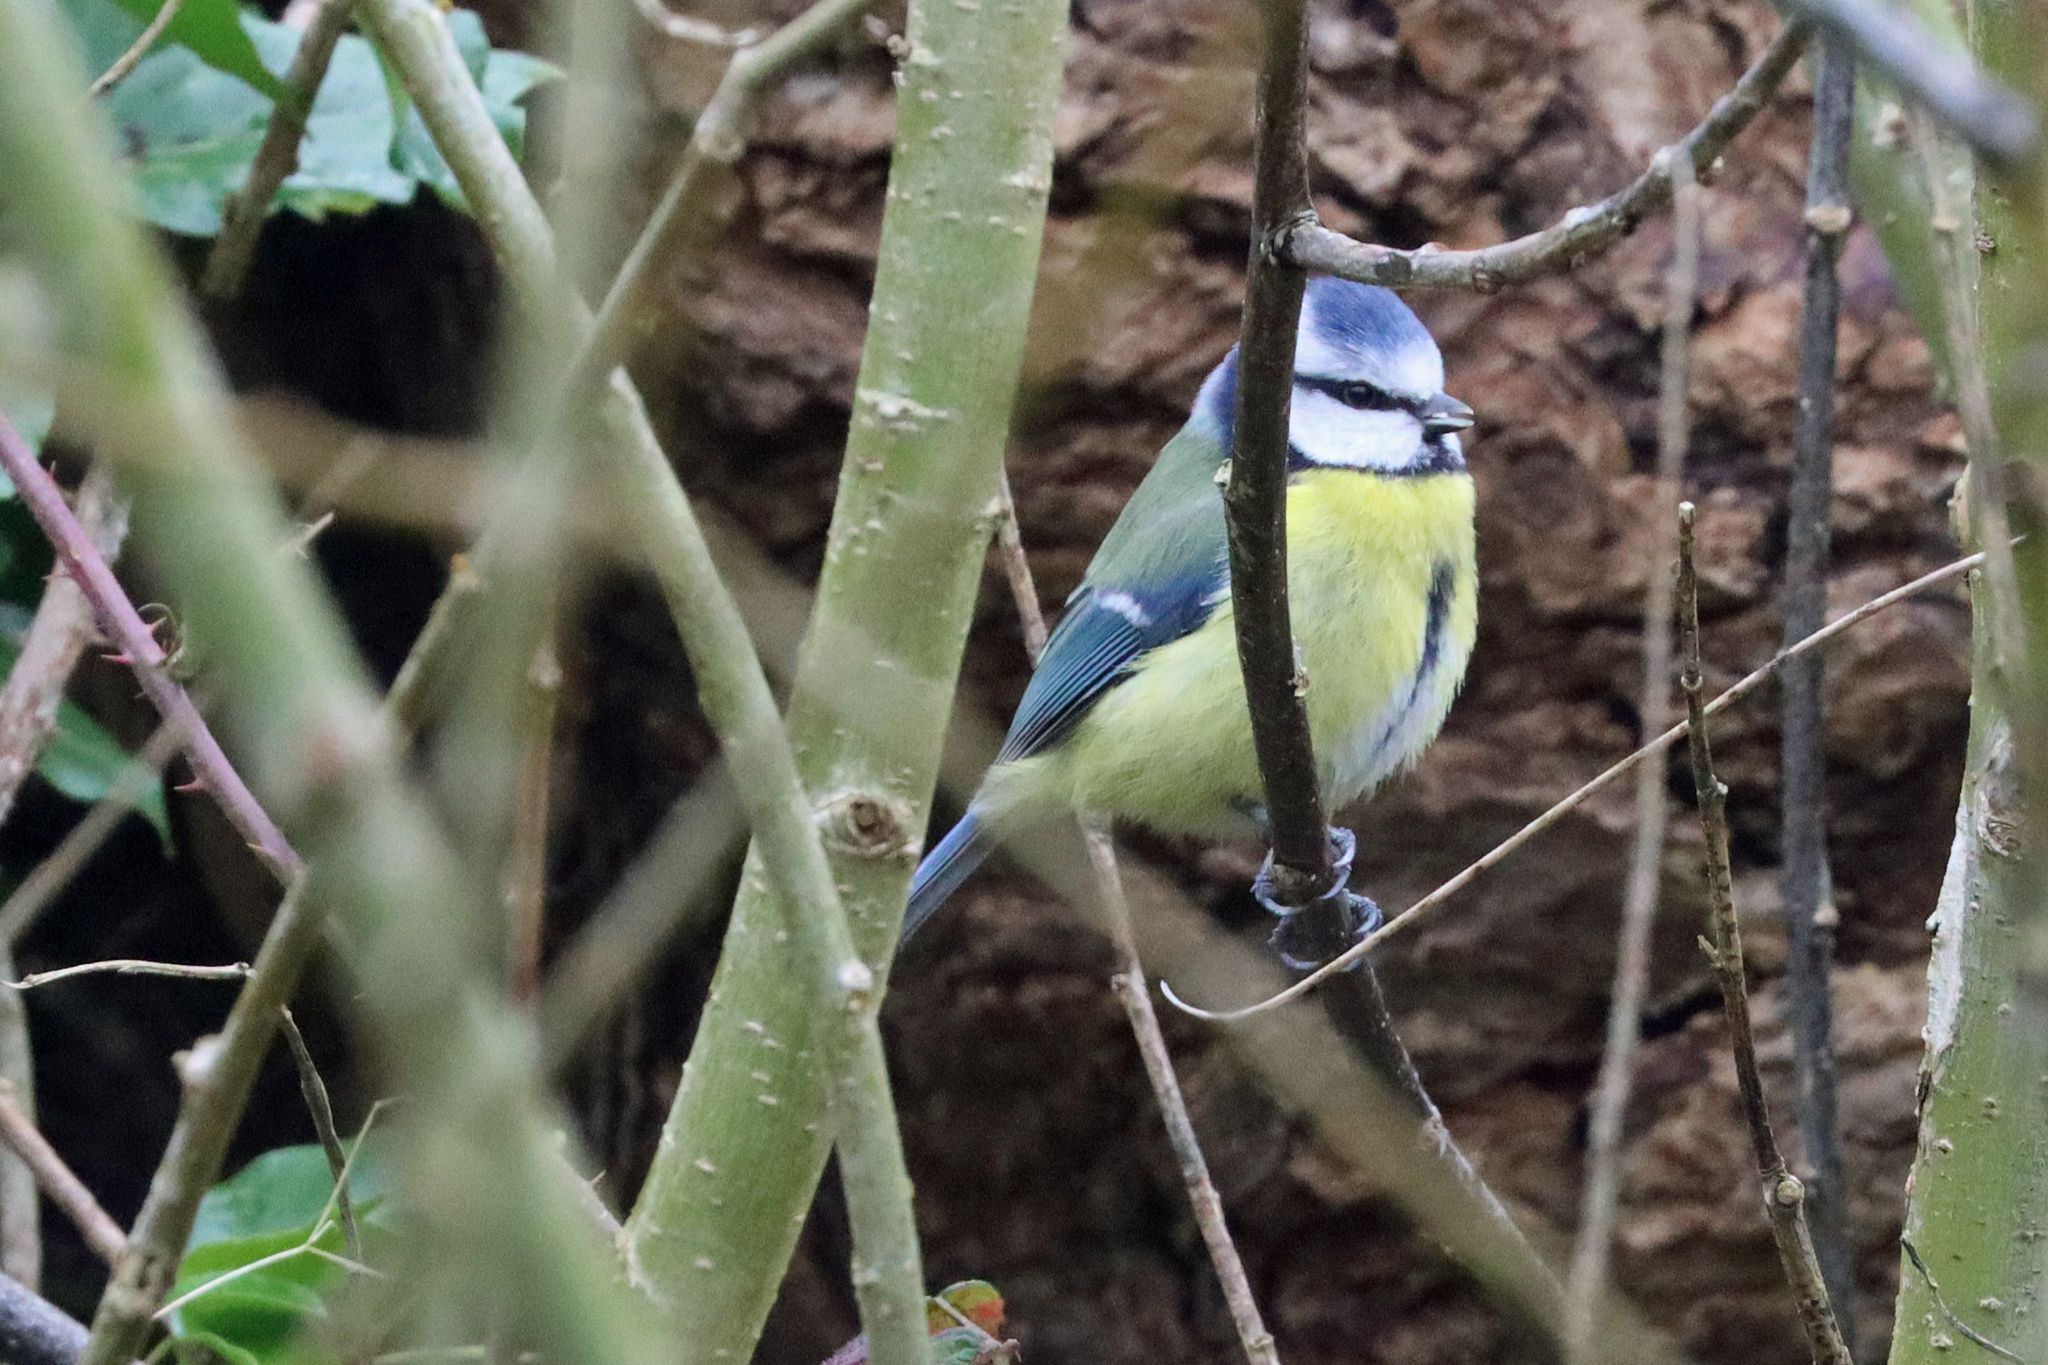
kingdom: Animalia
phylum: Chordata
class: Aves
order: Passeriformes
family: Paridae
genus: Cyanistes
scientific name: Cyanistes caeruleus
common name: Eurasian blue tit
